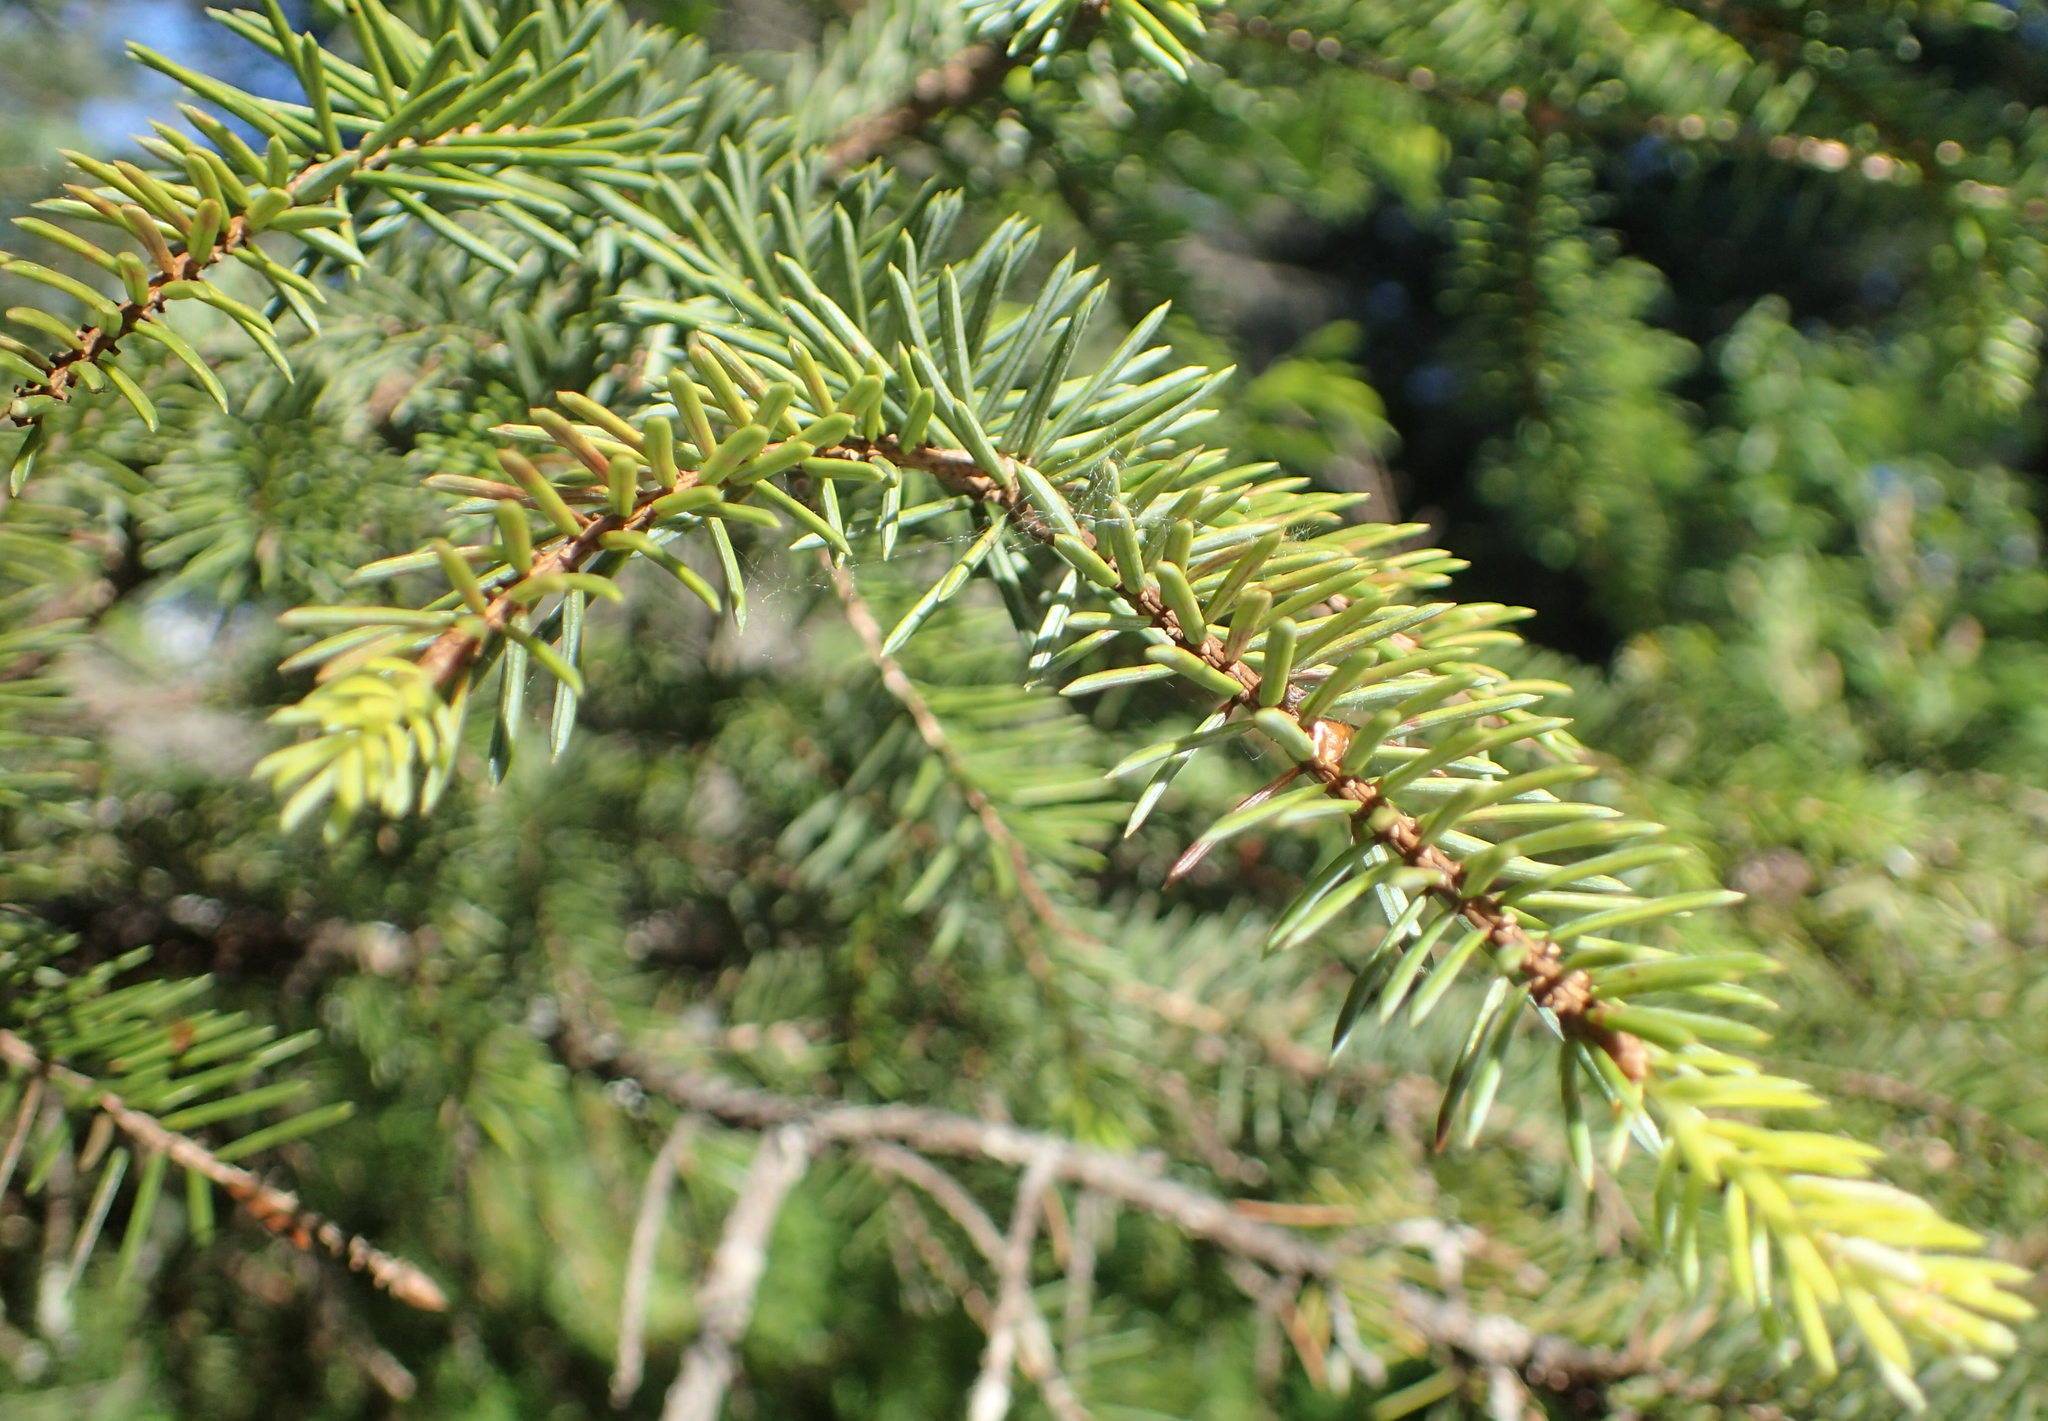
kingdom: Plantae
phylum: Tracheophyta
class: Pinopsida
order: Pinales
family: Pinaceae
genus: Picea
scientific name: Picea sitchensis
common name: Sitka spruce
